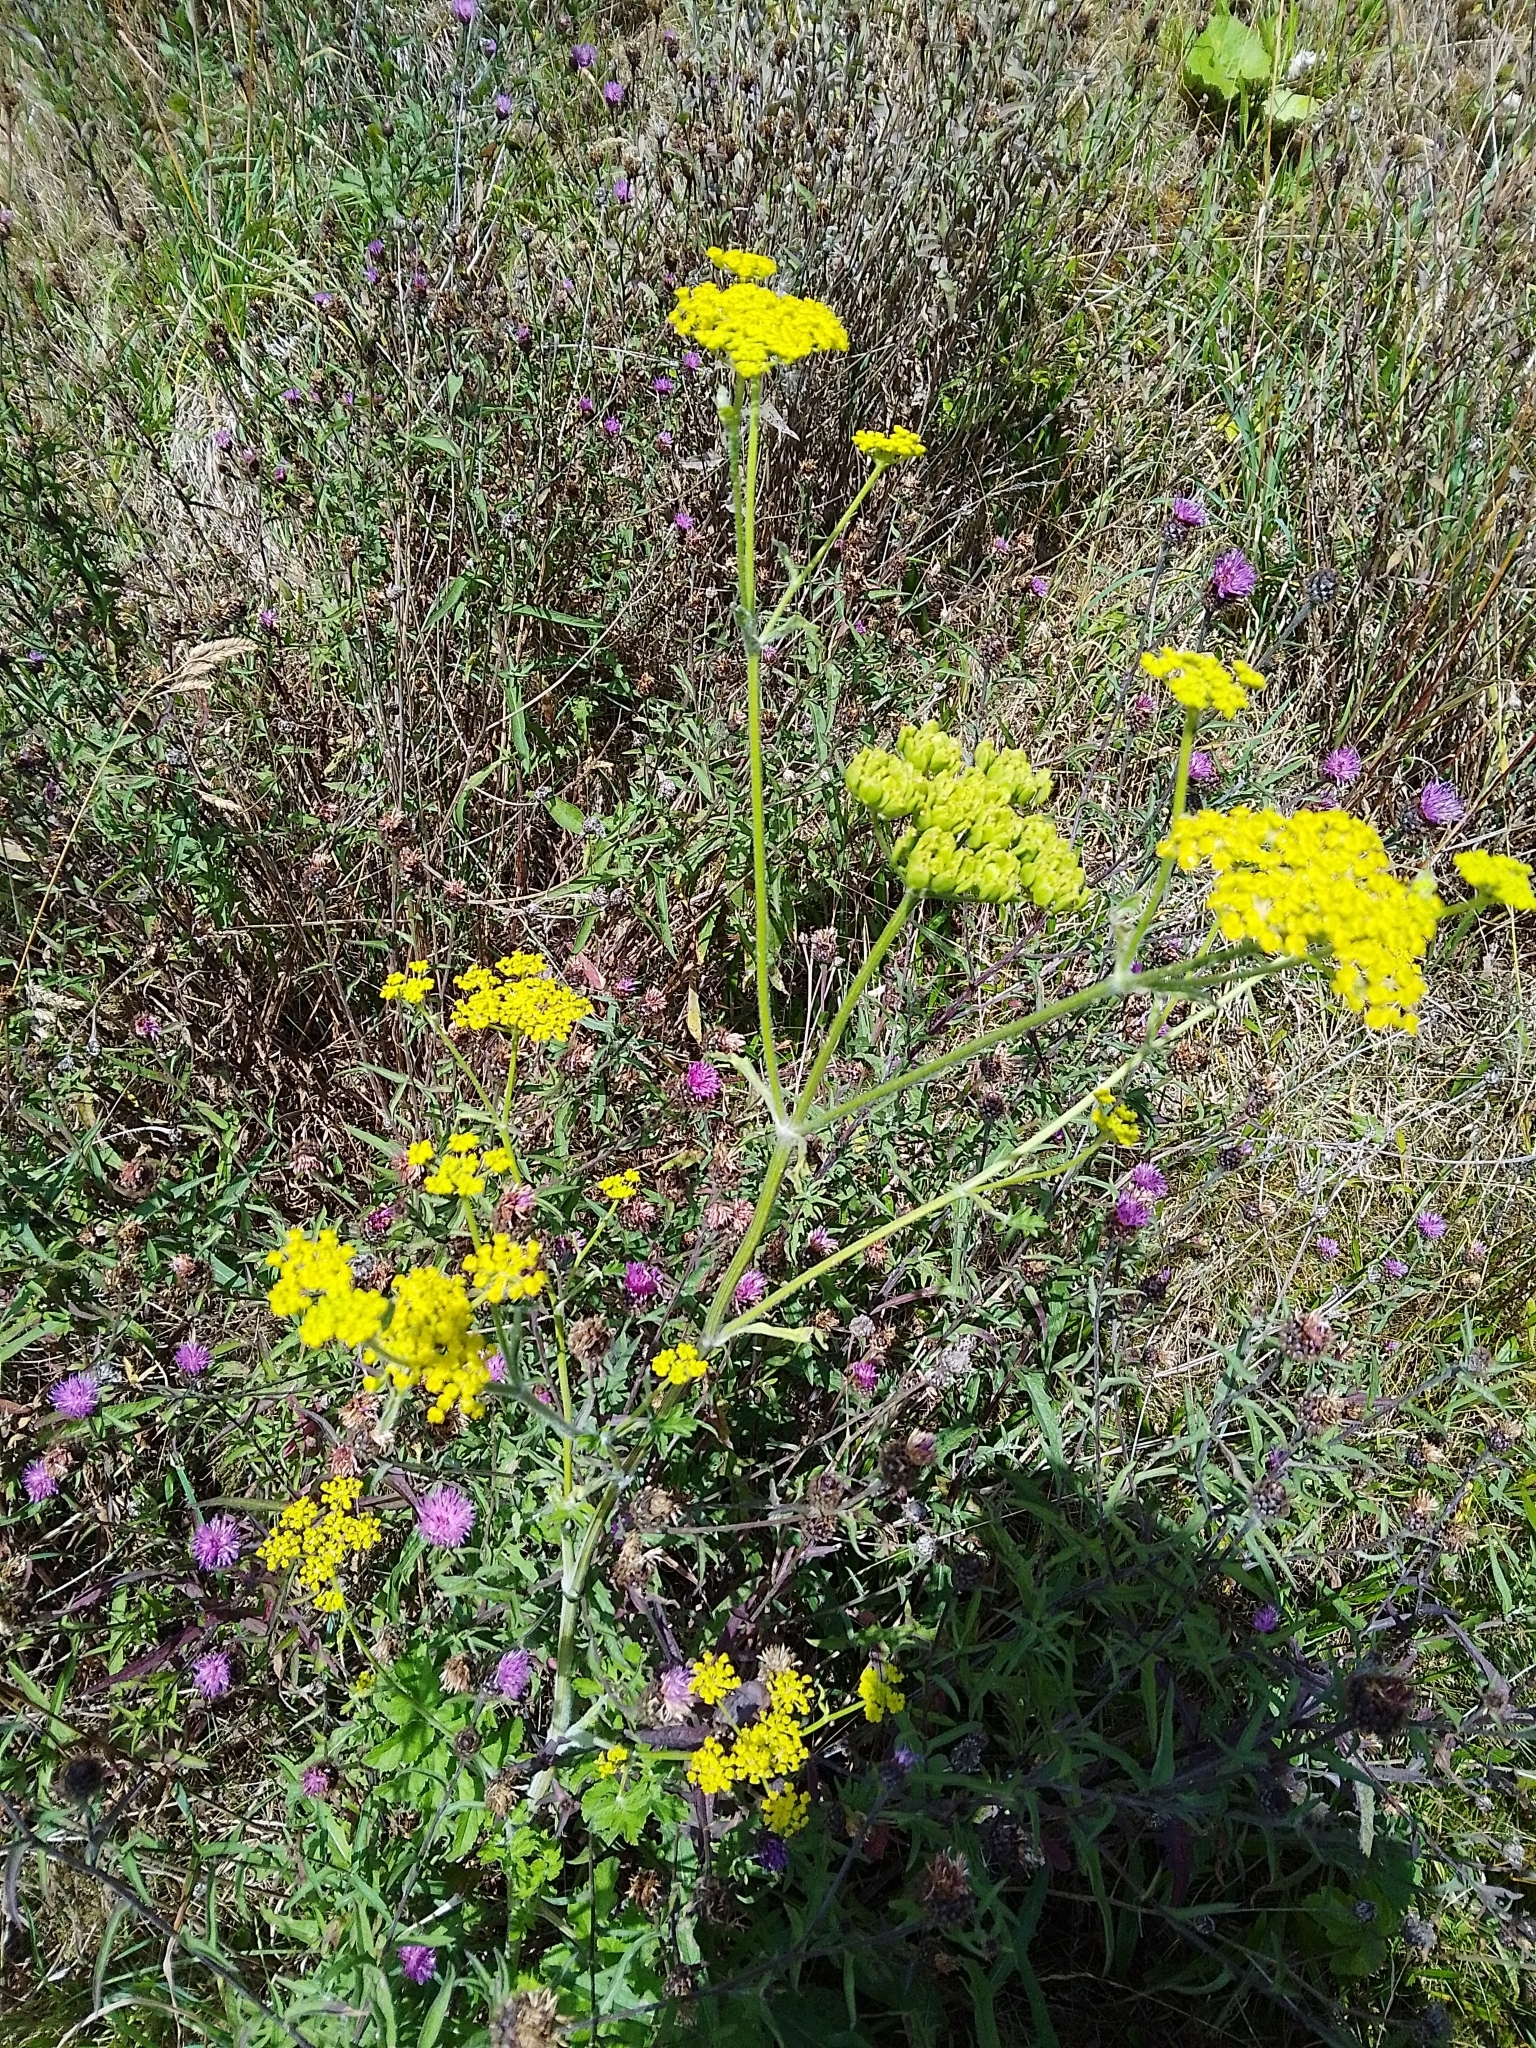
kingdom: Plantae
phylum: Tracheophyta
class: Magnoliopsida
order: Apiales
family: Apiaceae
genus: Pastinaca
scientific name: Pastinaca sativa
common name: Wild parsnip
